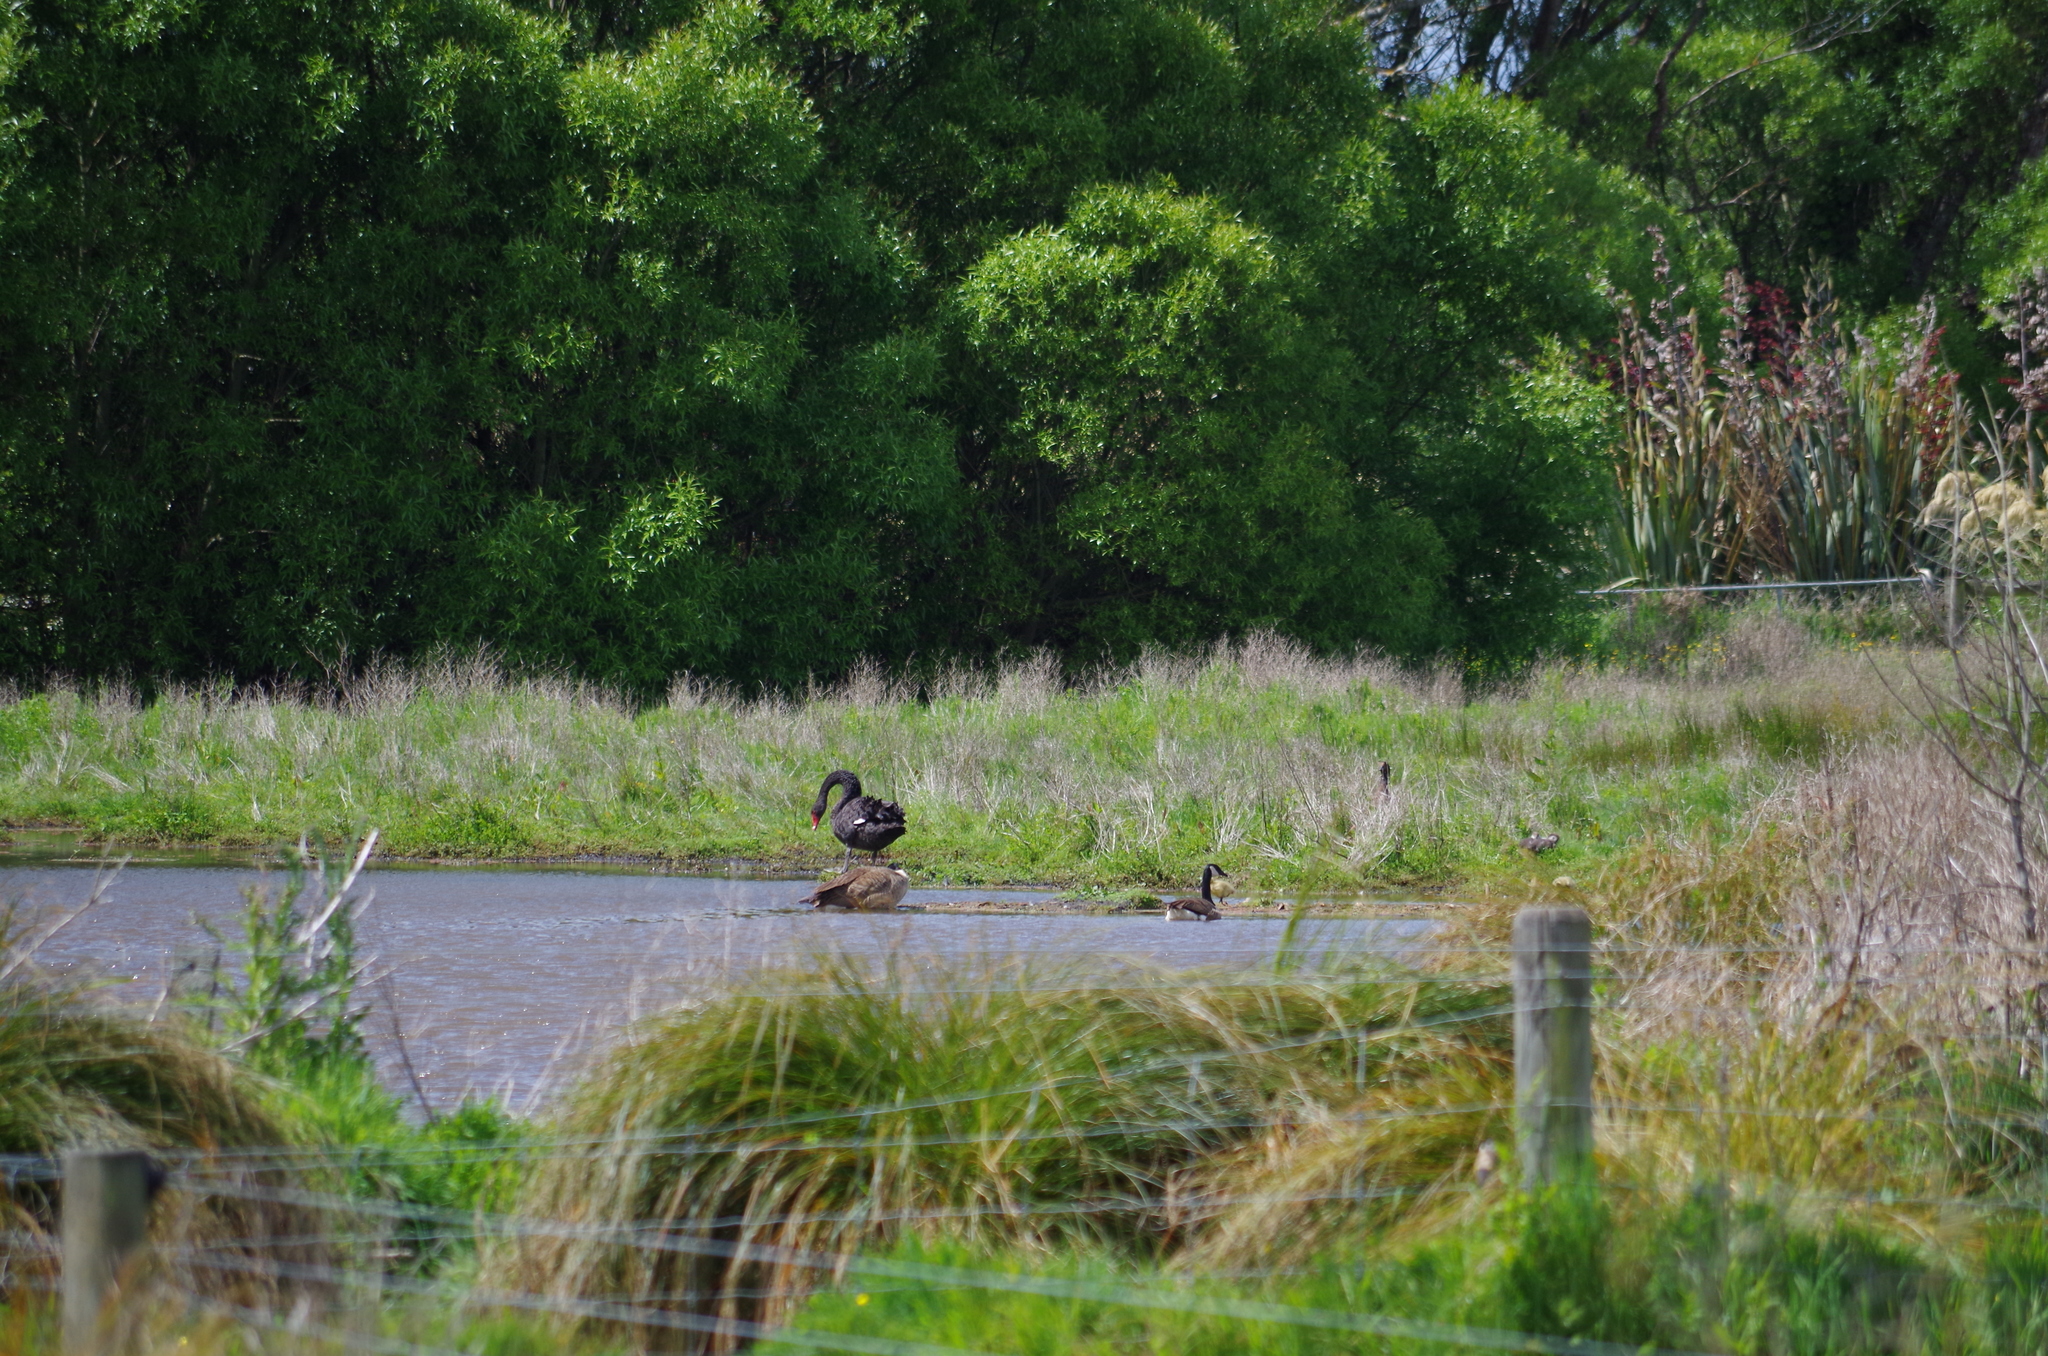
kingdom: Animalia
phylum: Chordata
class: Aves
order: Anseriformes
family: Anatidae
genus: Branta
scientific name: Branta canadensis
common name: Canada goose
